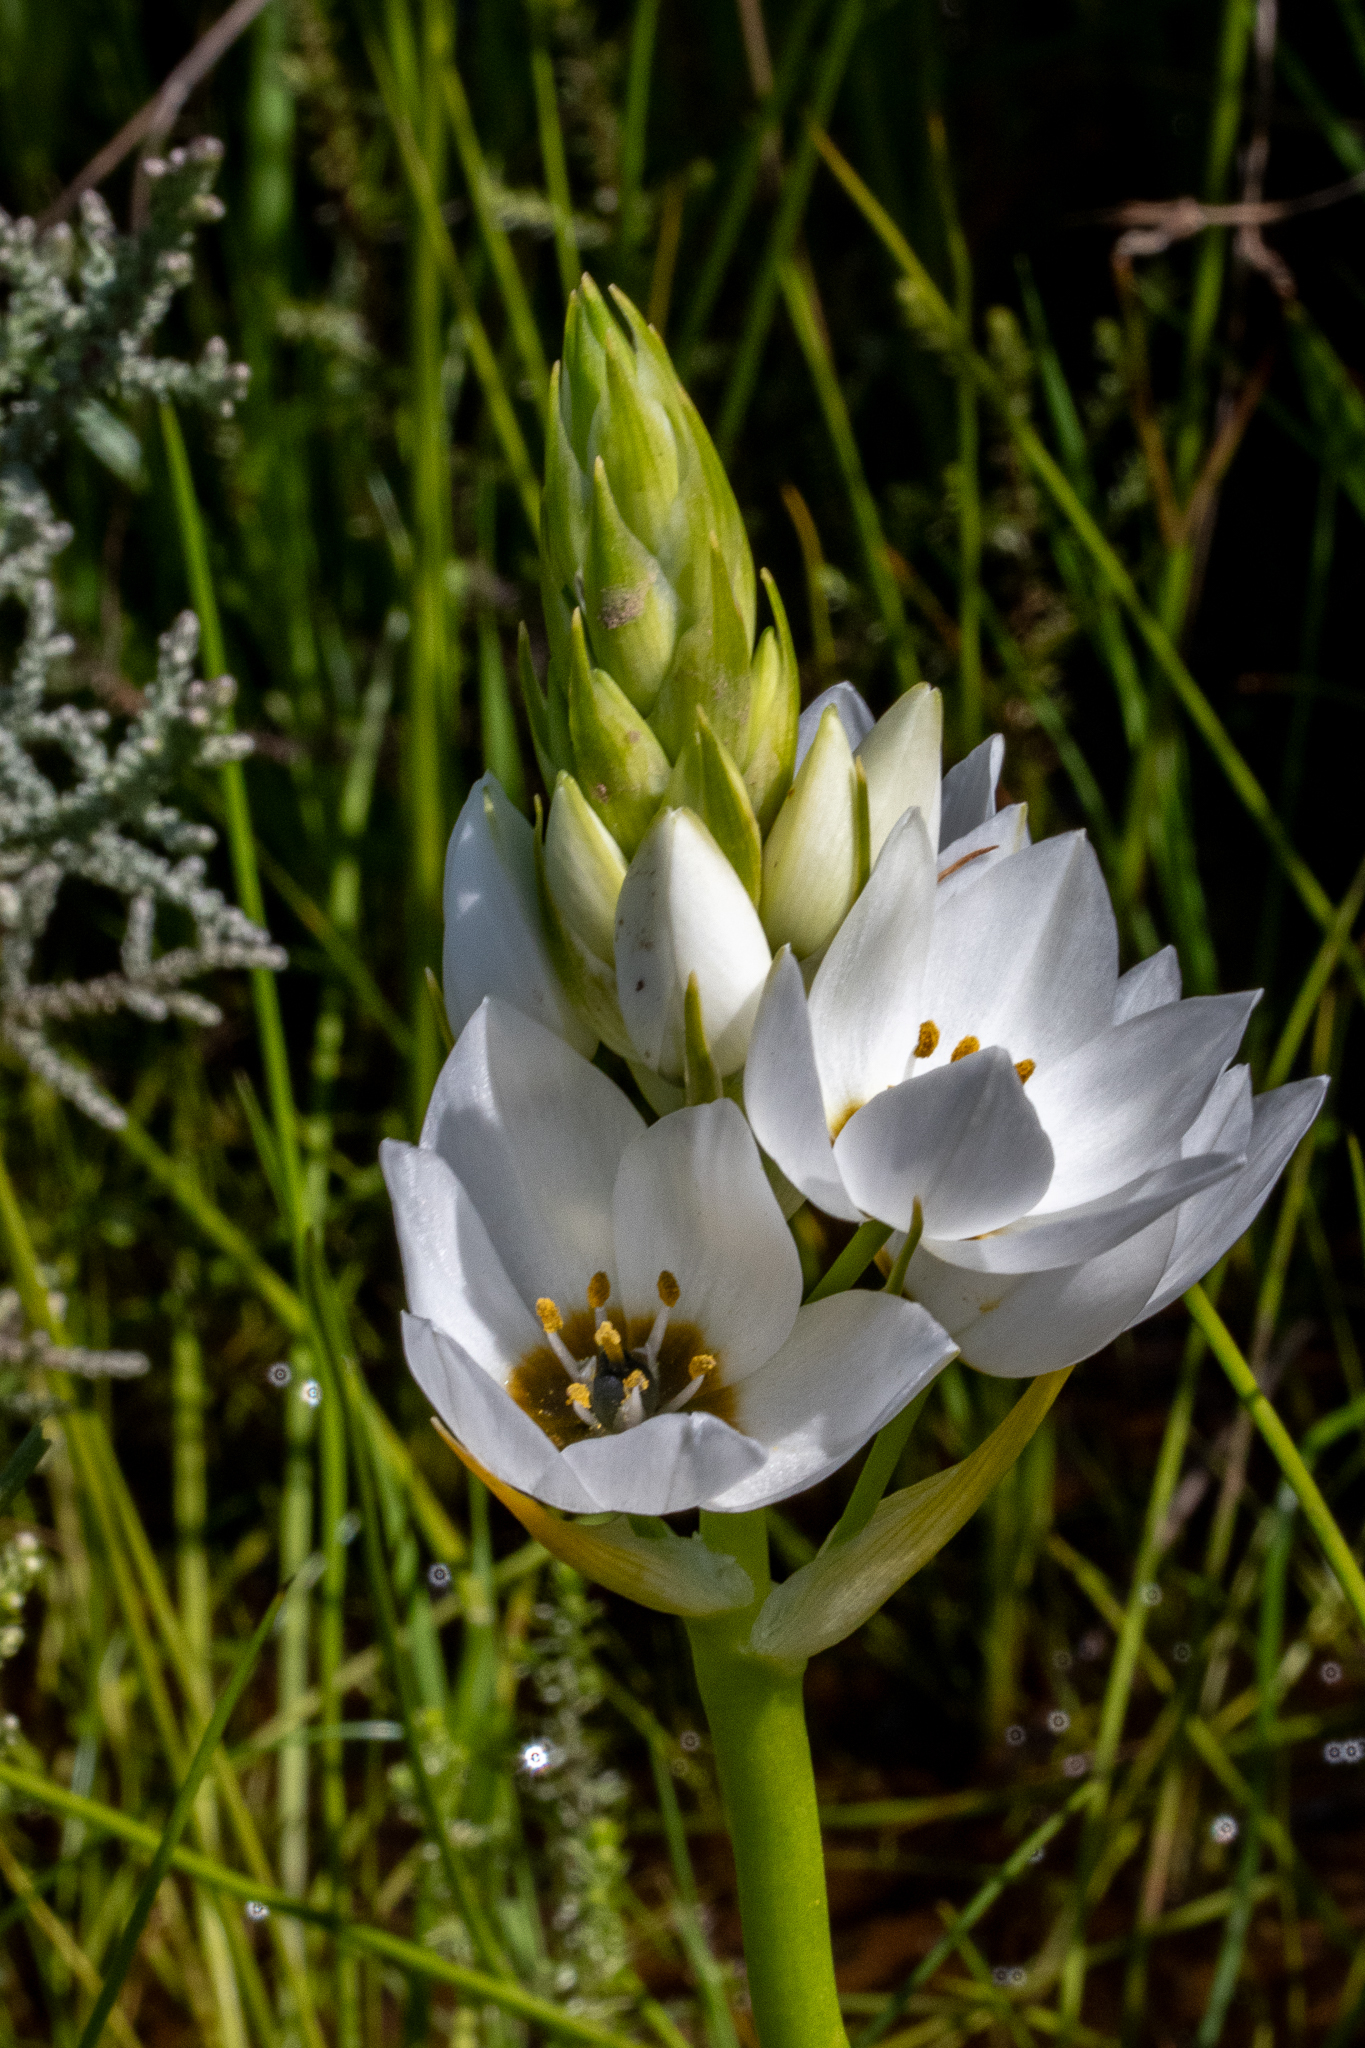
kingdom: Plantae
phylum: Tracheophyta
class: Liliopsida
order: Asparagales
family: Asparagaceae
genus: Ornithogalum
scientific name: Ornithogalum thyrsoides
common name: Chincherinchee
